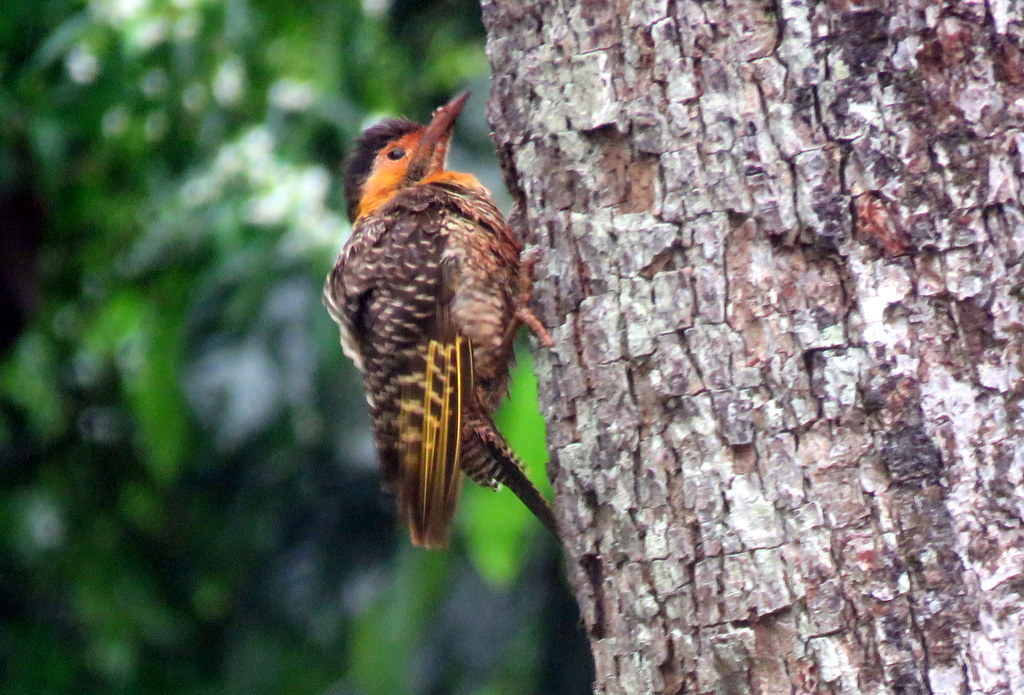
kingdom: Animalia
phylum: Chordata
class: Aves
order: Piciformes
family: Picidae
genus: Colaptes
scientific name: Colaptes campestris
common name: Campo flicker
